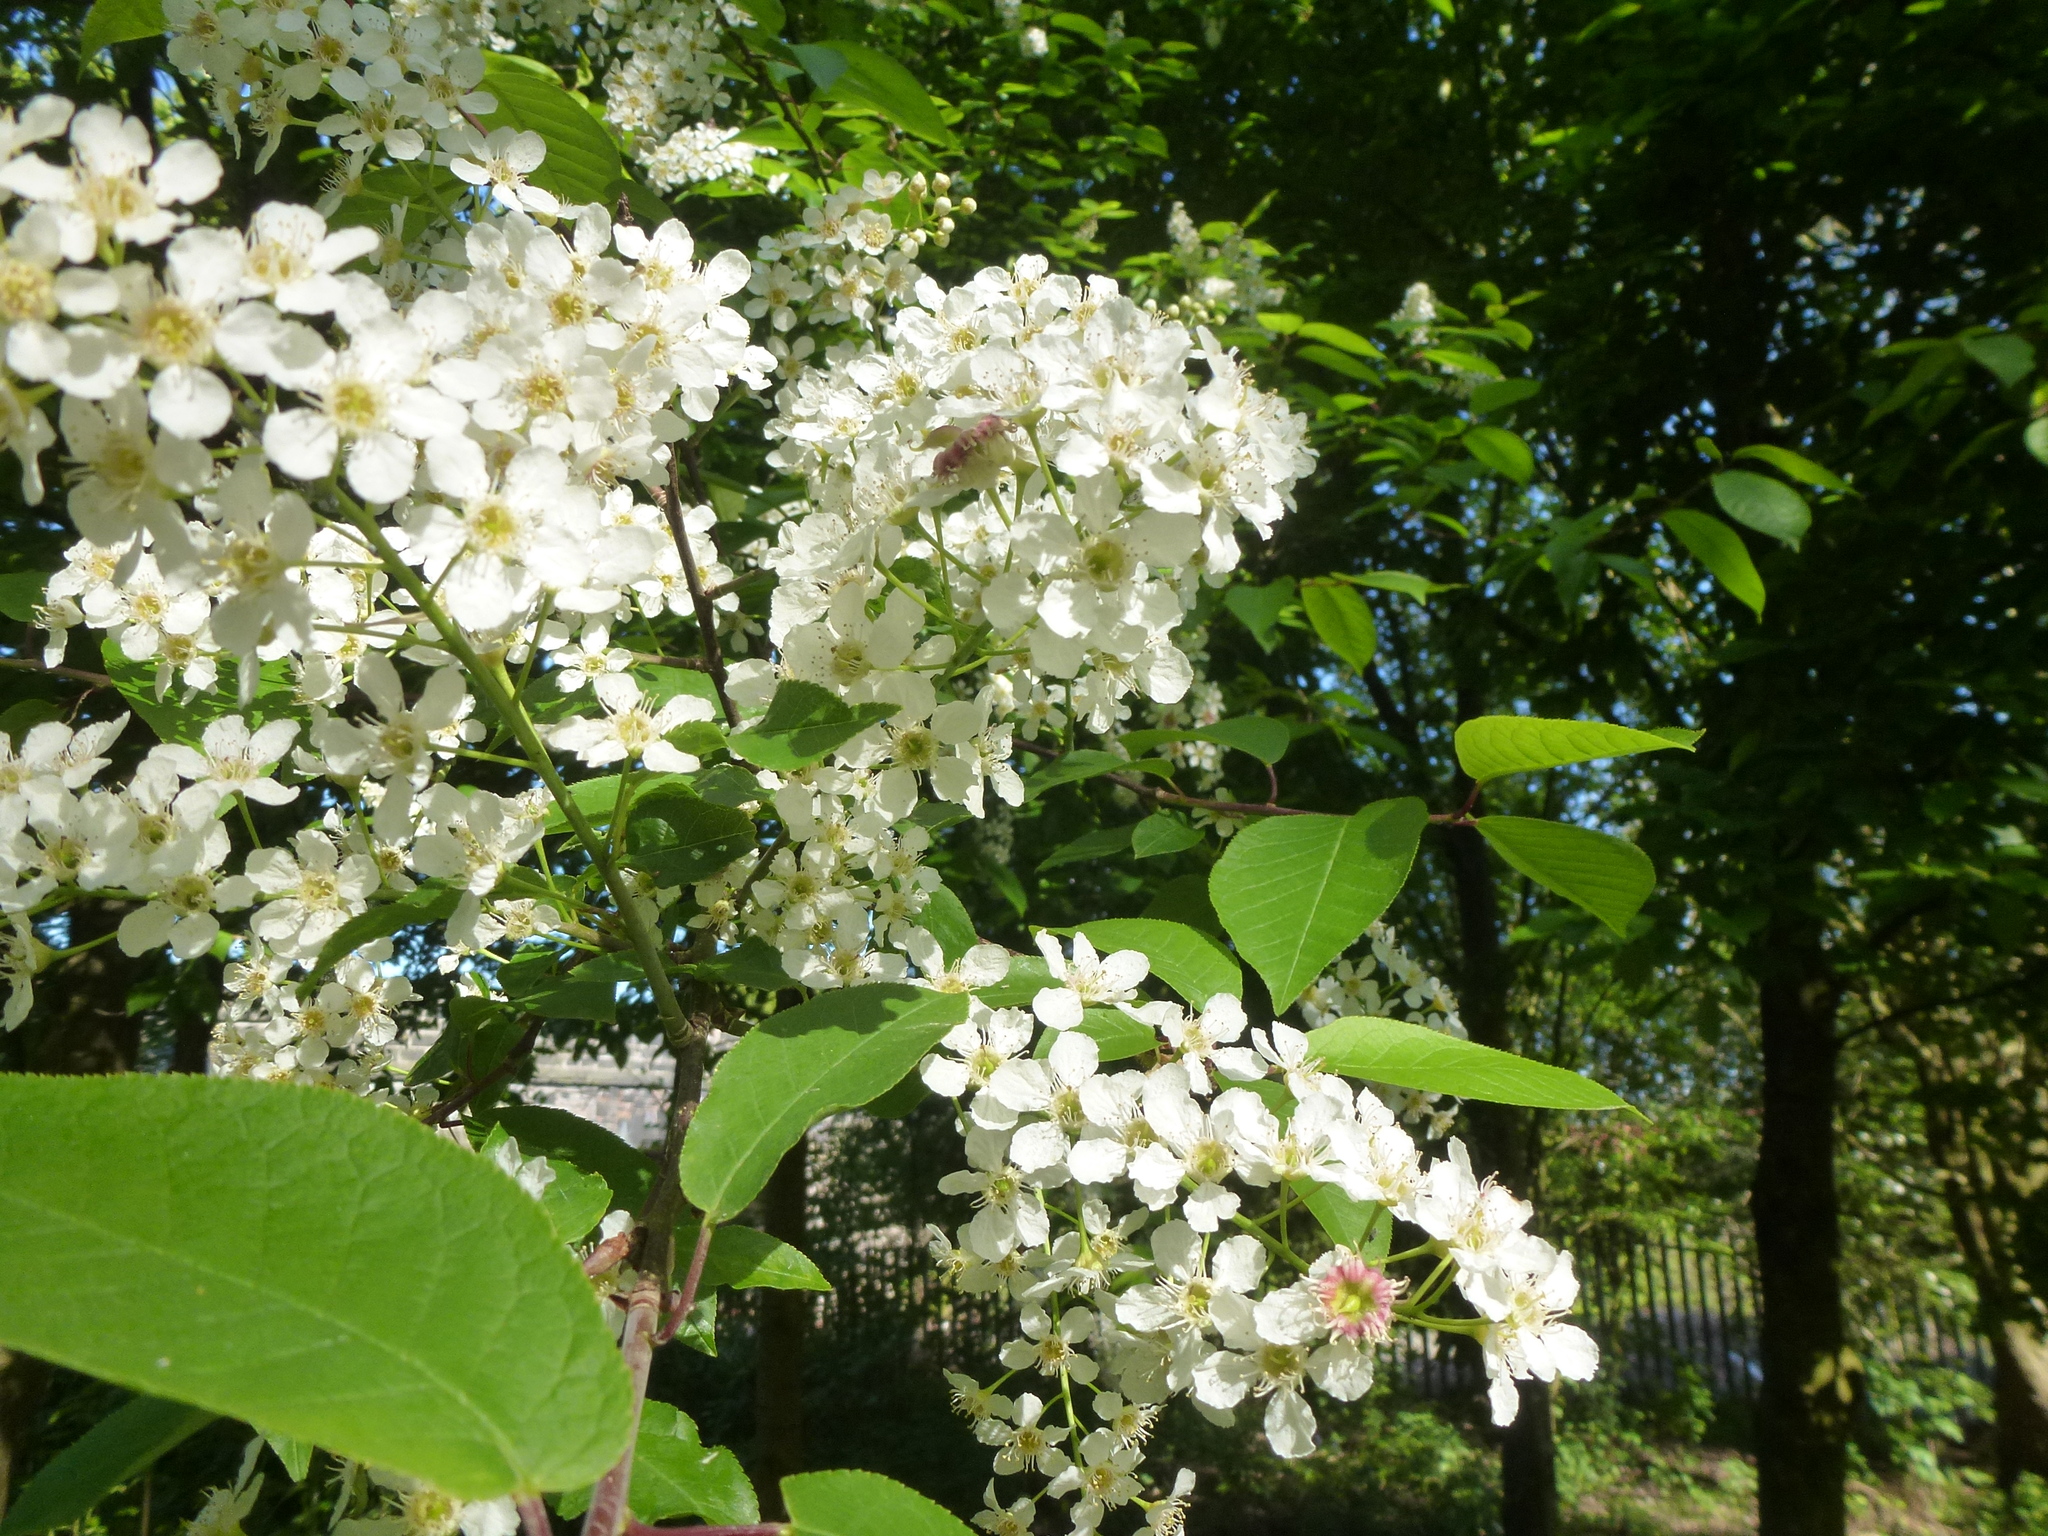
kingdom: Plantae
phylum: Tracheophyta
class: Magnoliopsida
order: Rosales
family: Rosaceae
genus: Prunus
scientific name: Prunus padus
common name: Bird cherry
